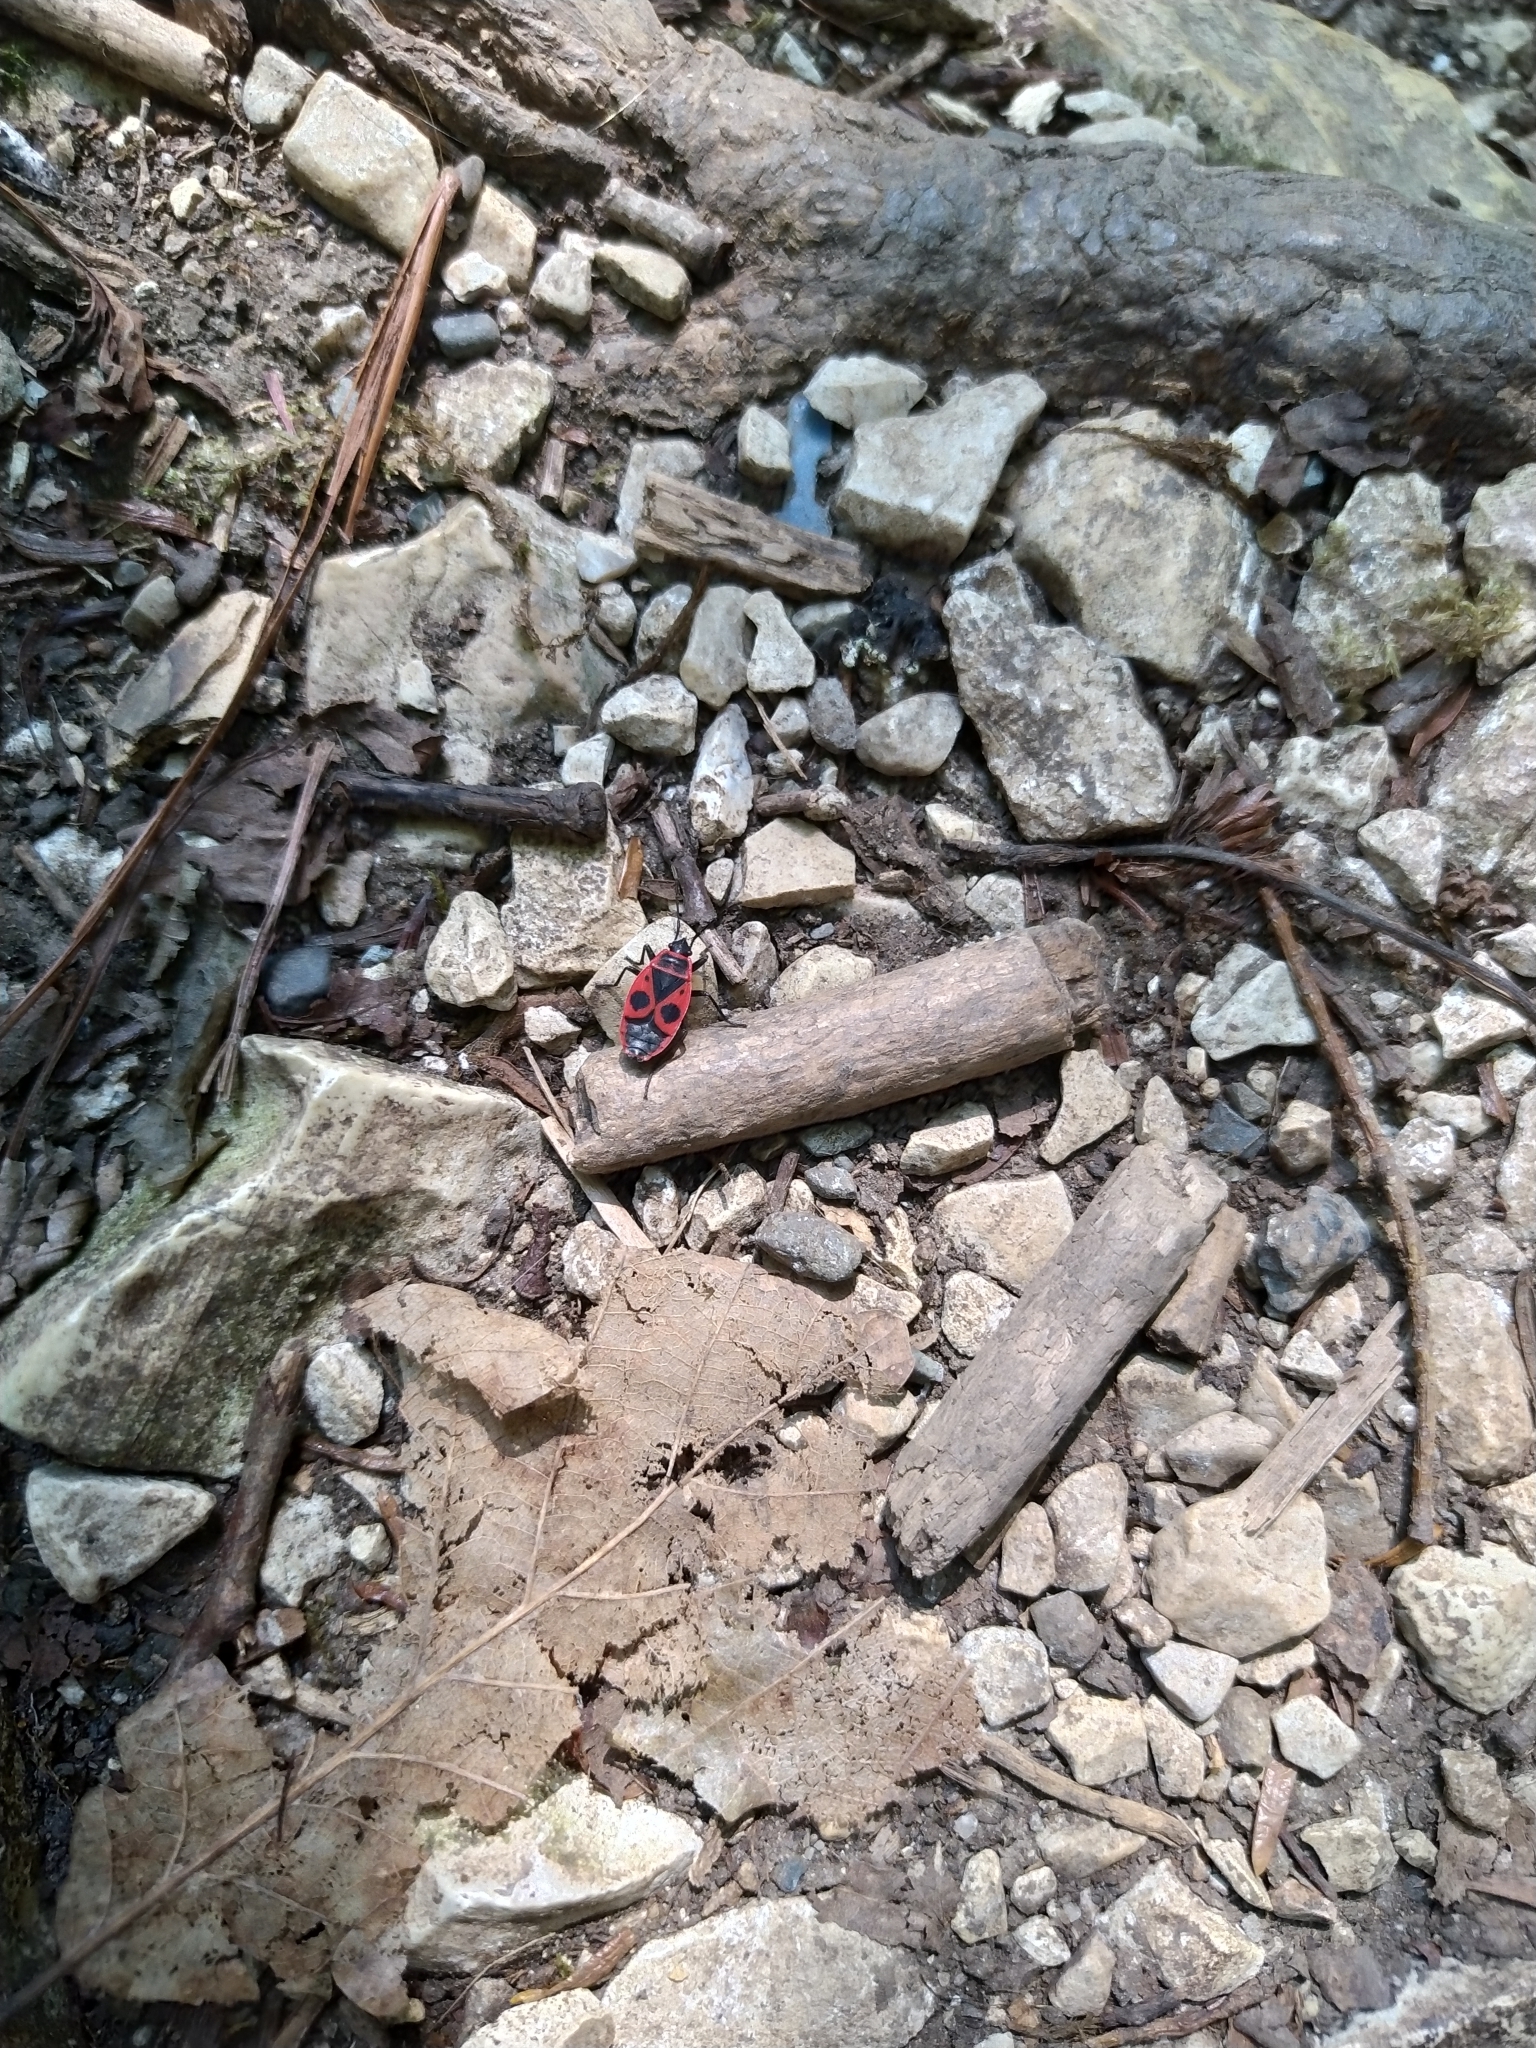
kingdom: Animalia
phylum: Arthropoda
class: Insecta
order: Hemiptera
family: Pyrrhocoridae
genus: Pyrrhocoris
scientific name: Pyrrhocoris apterus
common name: Firebug
